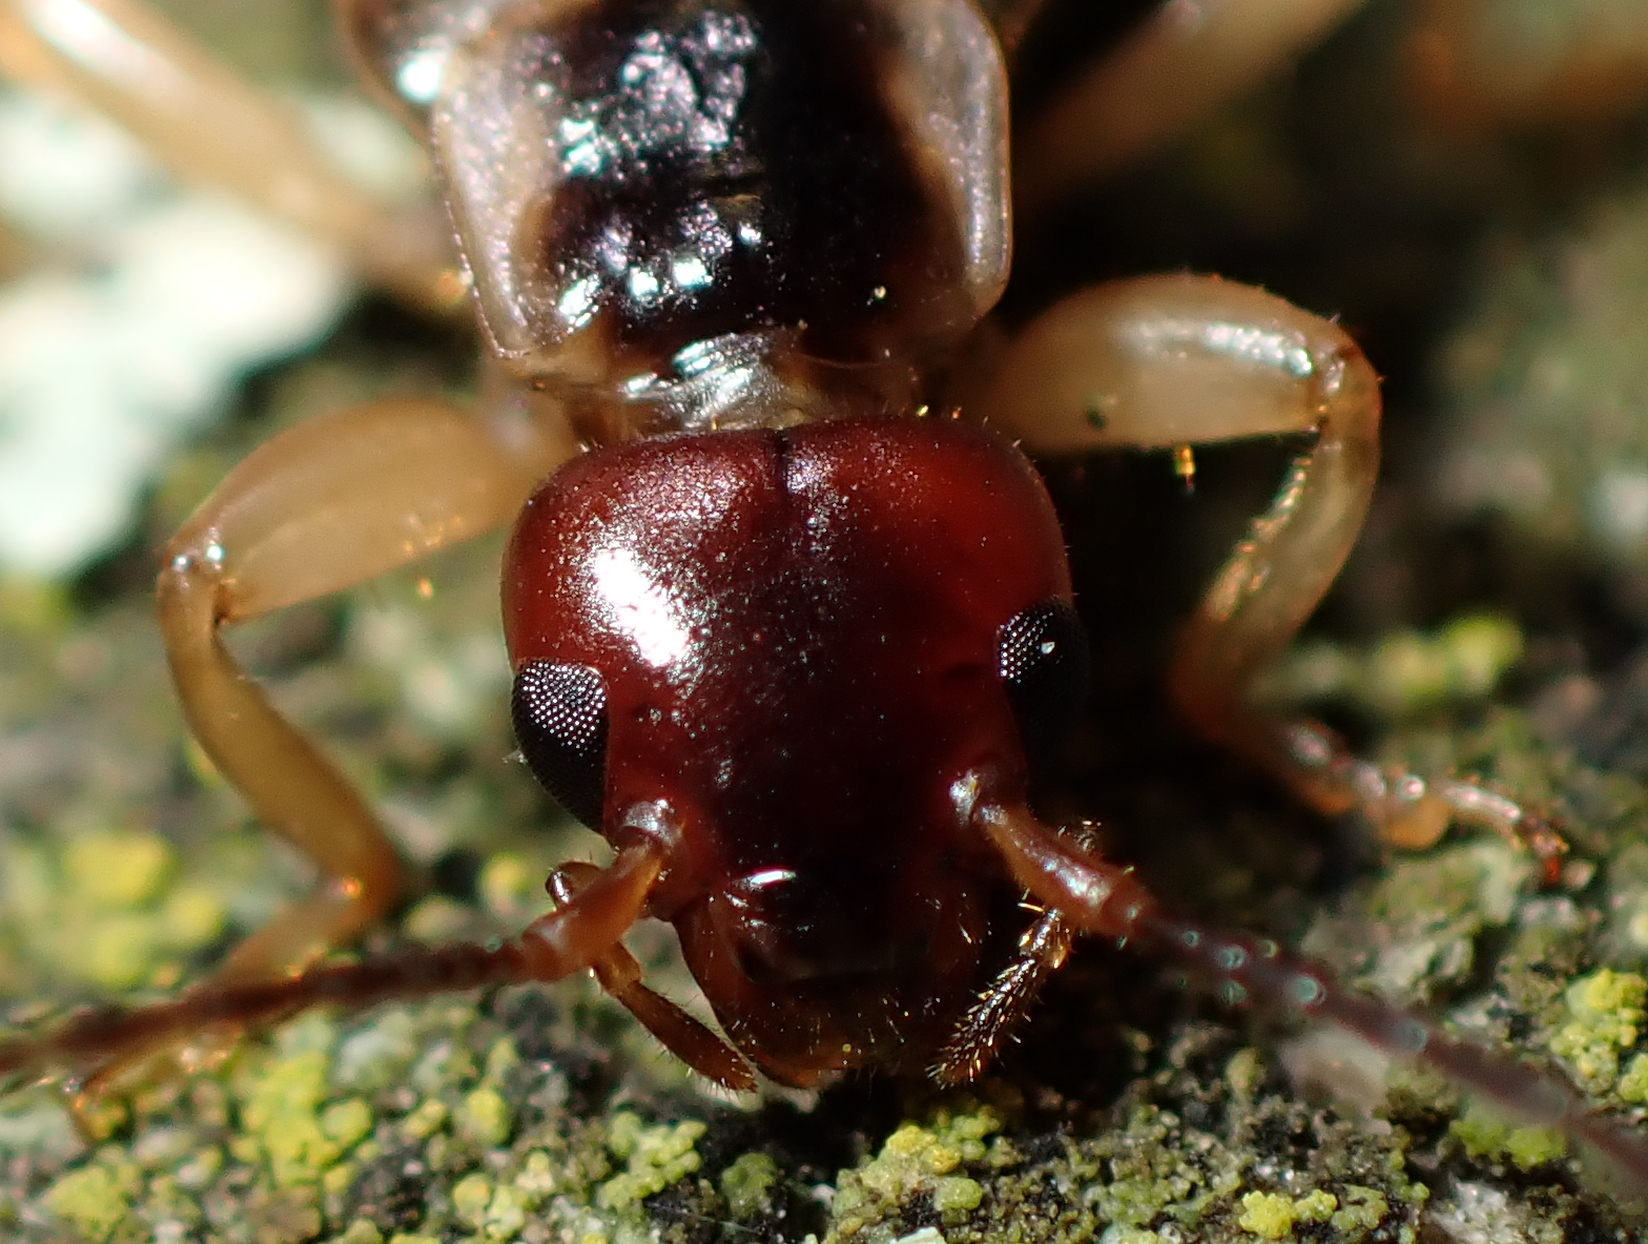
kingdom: Animalia
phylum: Arthropoda
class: Insecta
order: Dermaptera
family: Forficulidae
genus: Forficula
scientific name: Forficula
